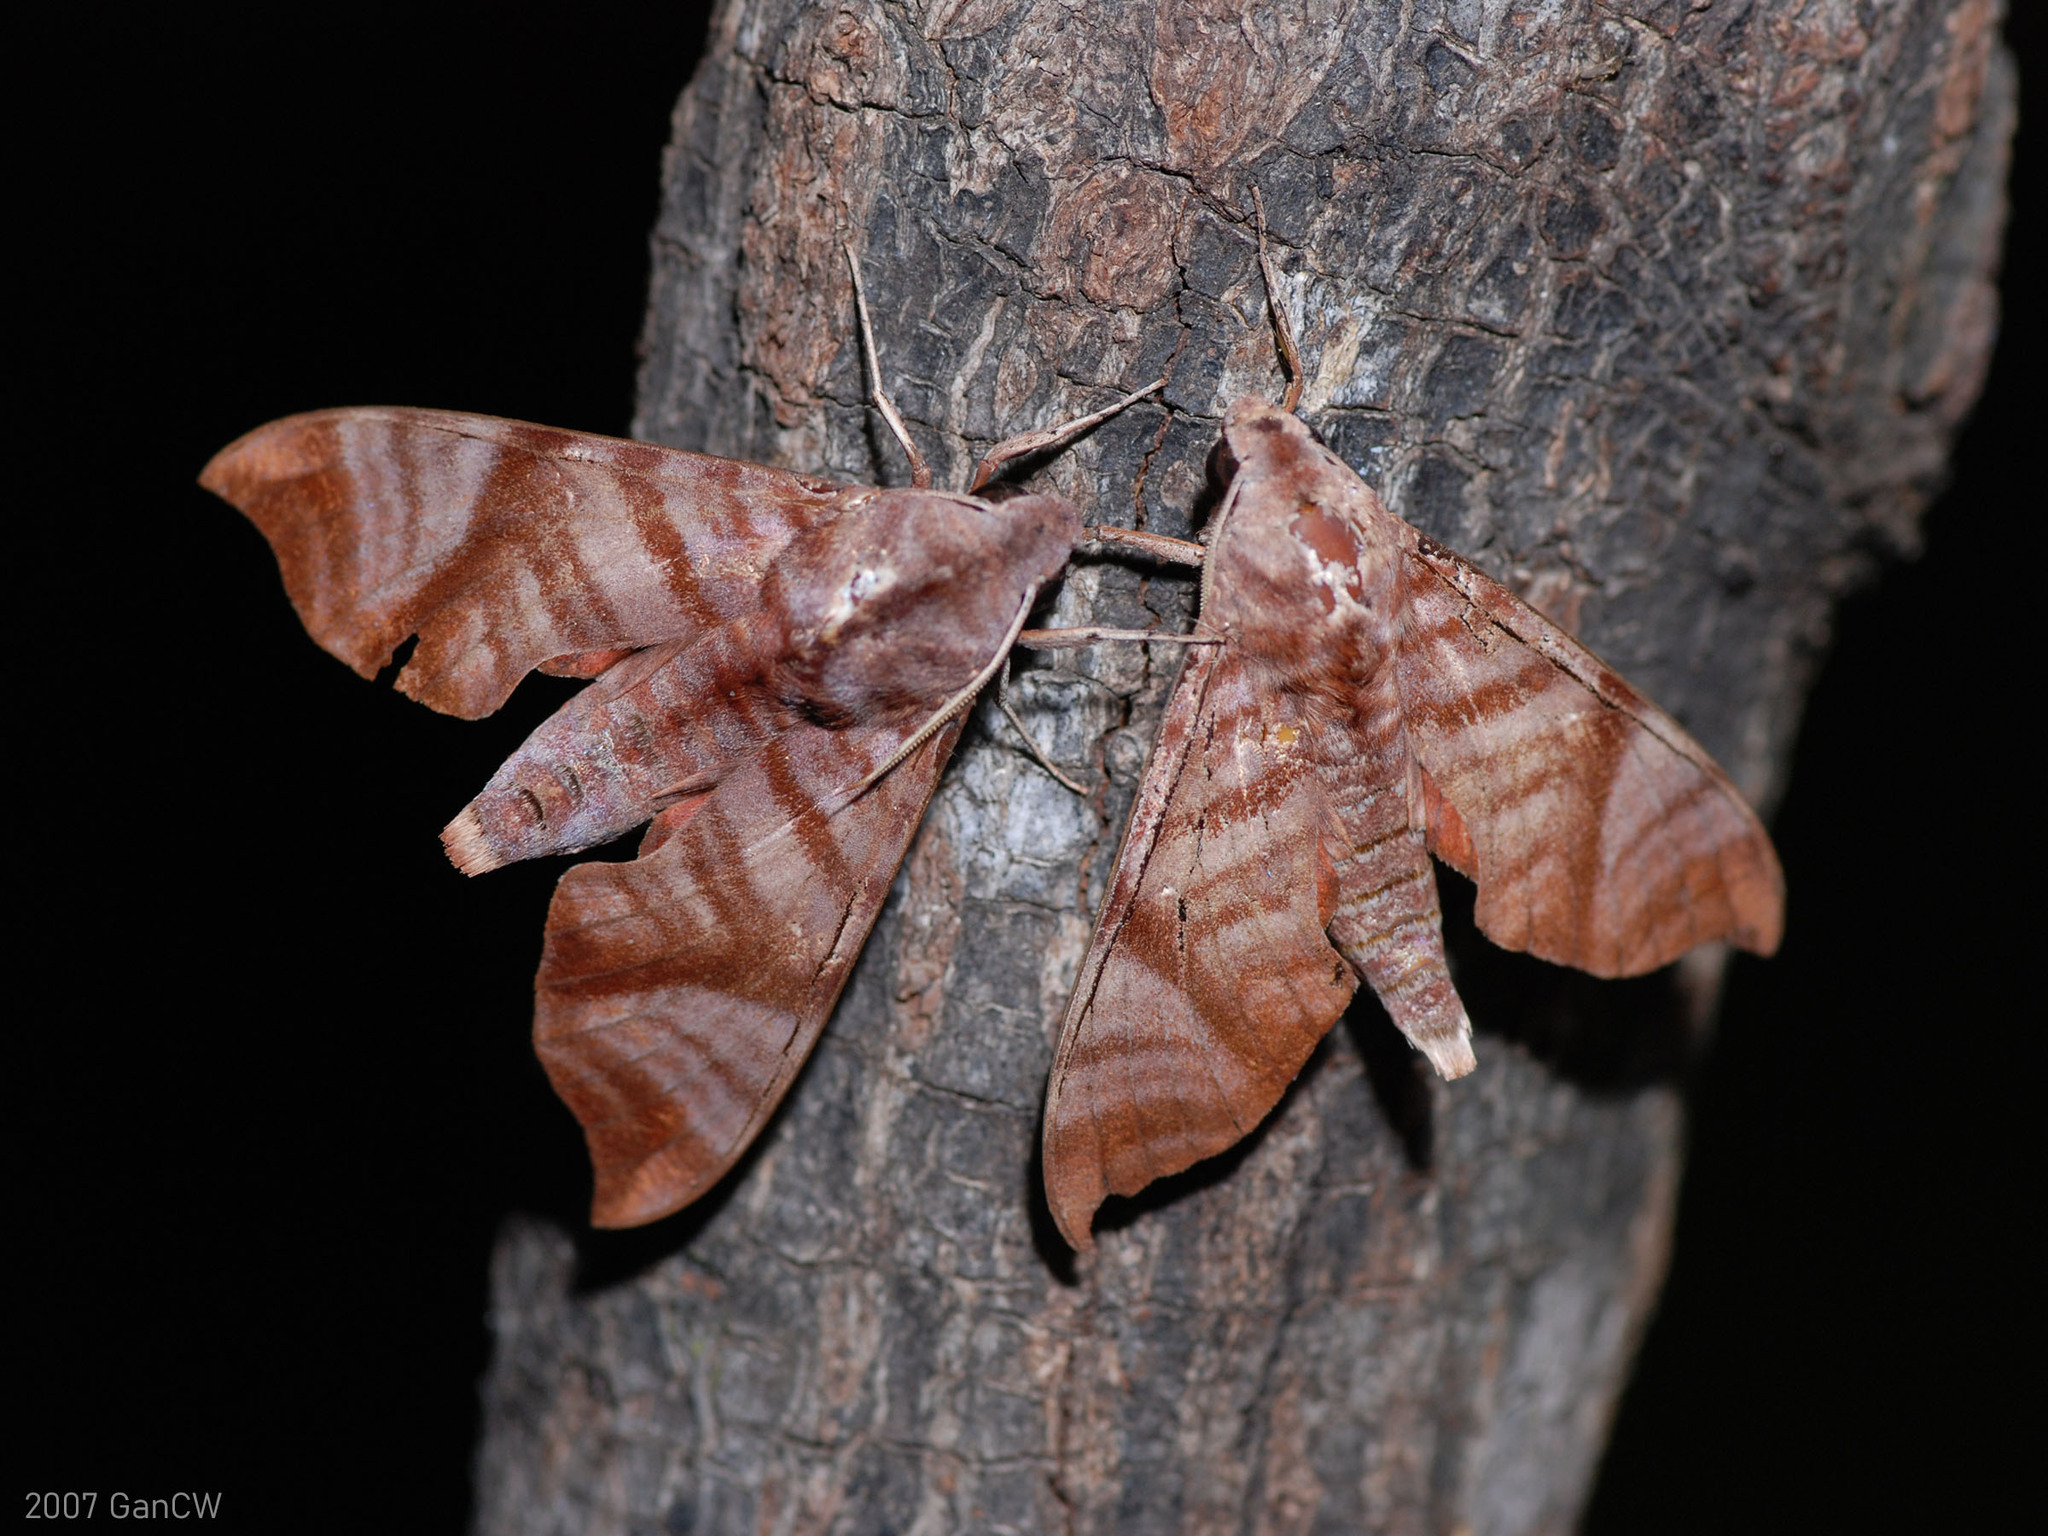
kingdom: Animalia
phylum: Arthropoda
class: Insecta
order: Lepidoptera
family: Sphingidae
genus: Dahira
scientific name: Dahira falcata
